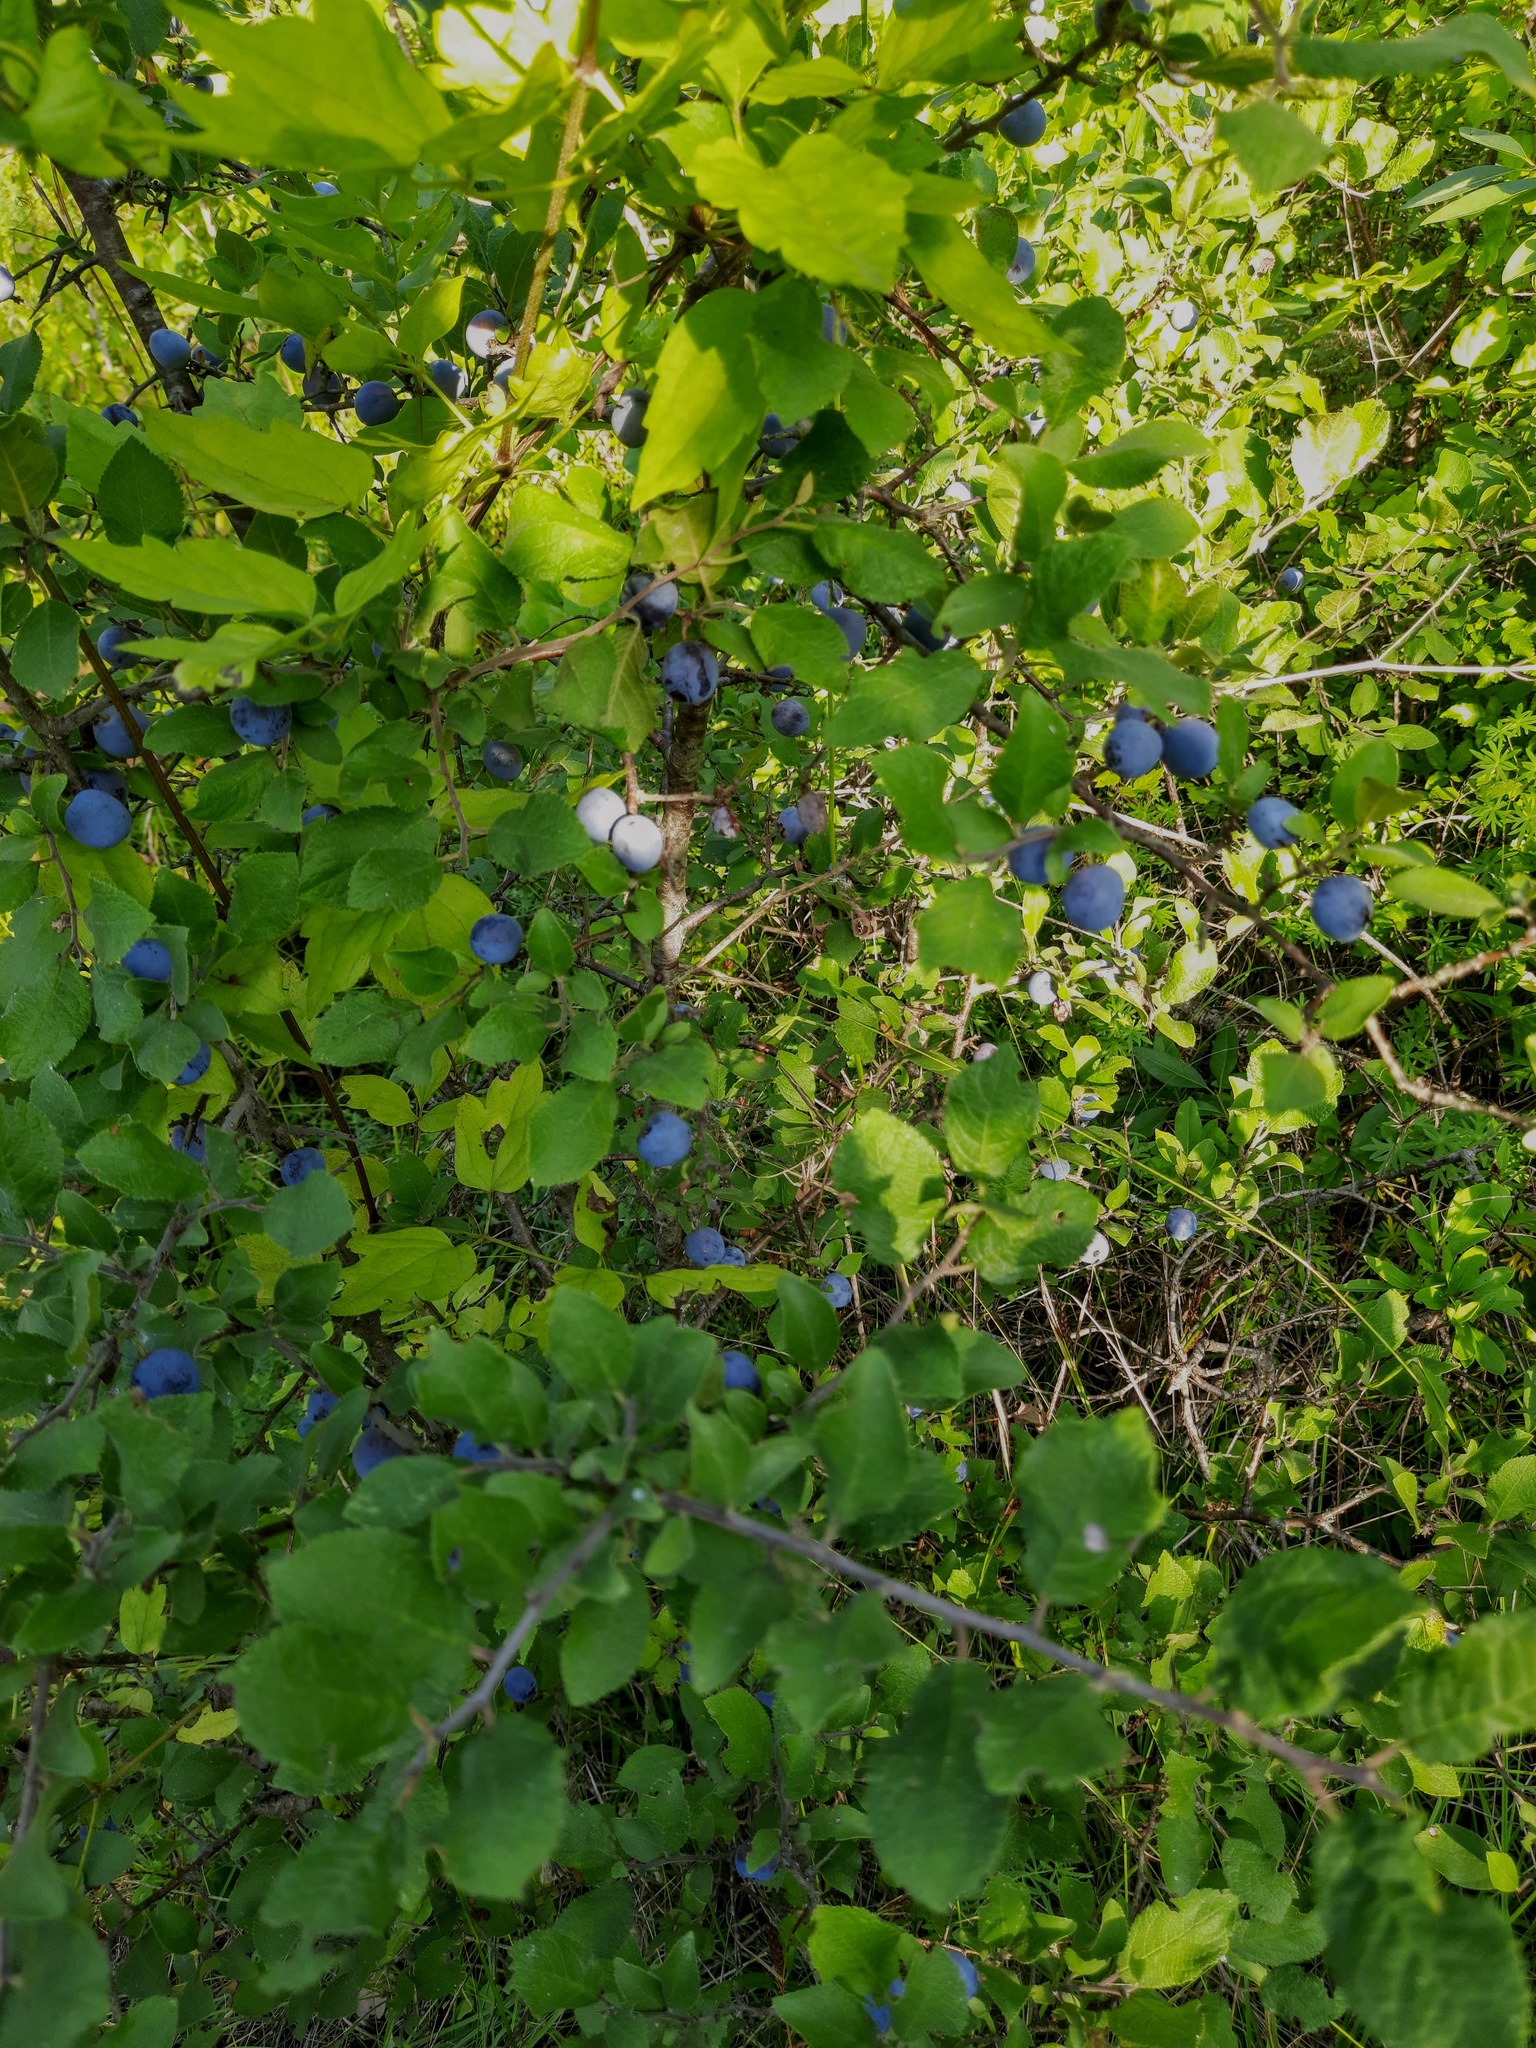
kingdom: Plantae
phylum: Tracheophyta
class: Magnoliopsida
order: Rosales
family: Rosaceae
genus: Prunus
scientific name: Prunus spinosa
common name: Blackthorn
